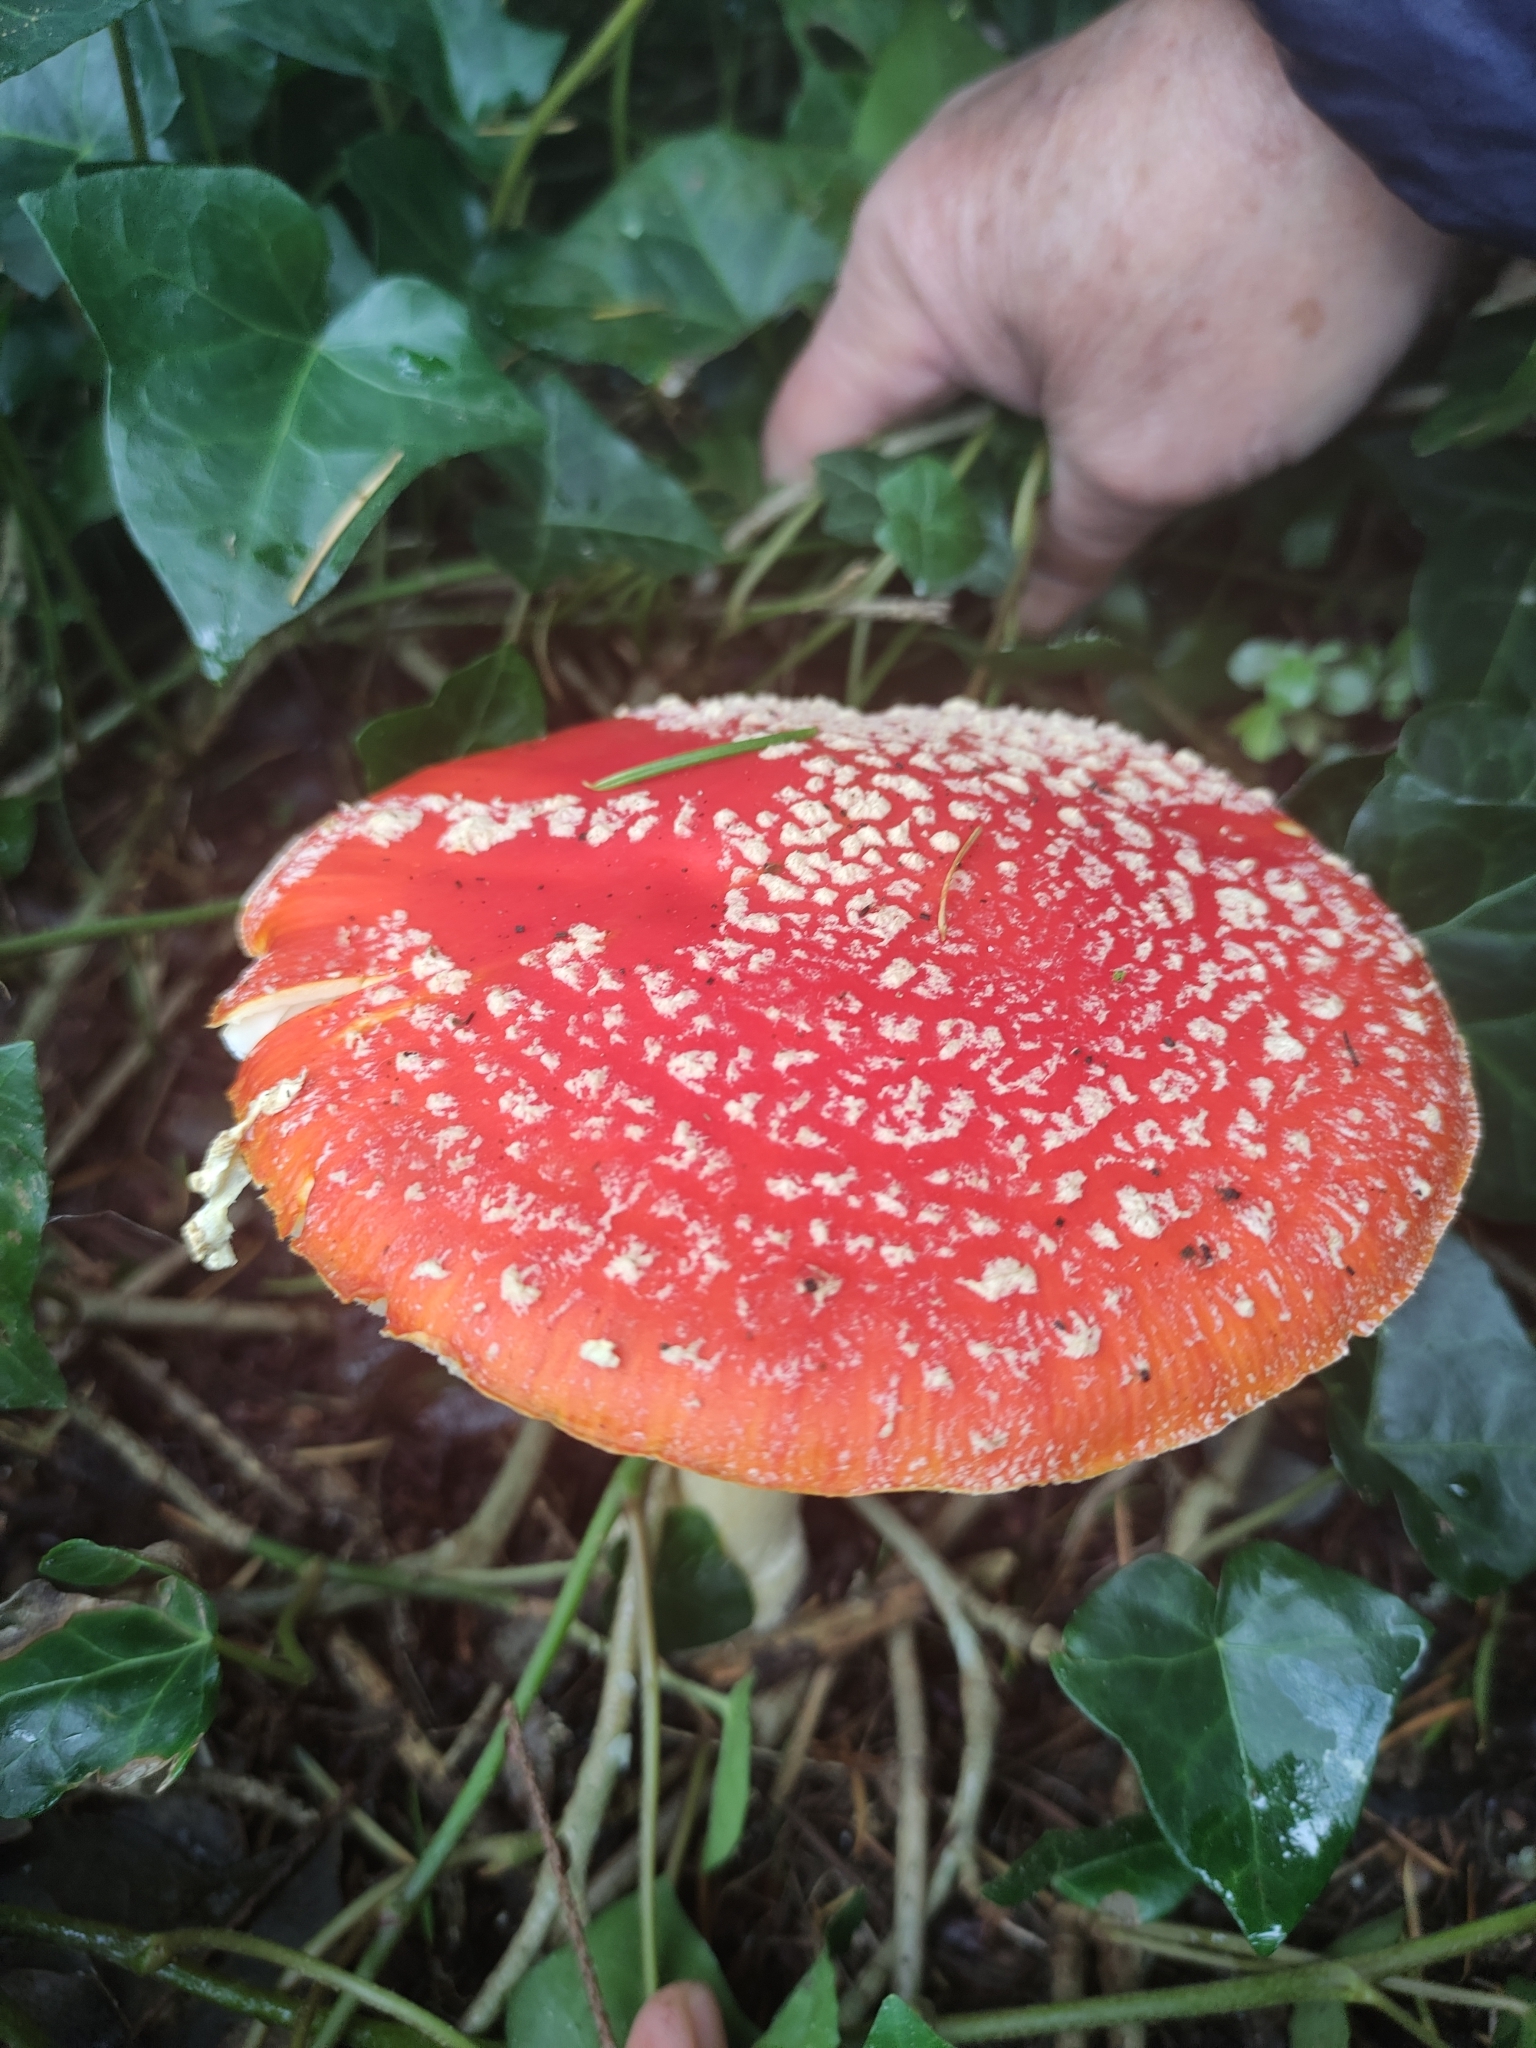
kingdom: Fungi
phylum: Basidiomycota
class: Agaricomycetes
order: Agaricales
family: Amanitaceae
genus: Amanita
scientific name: Amanita muscaria
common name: Fly agaric
